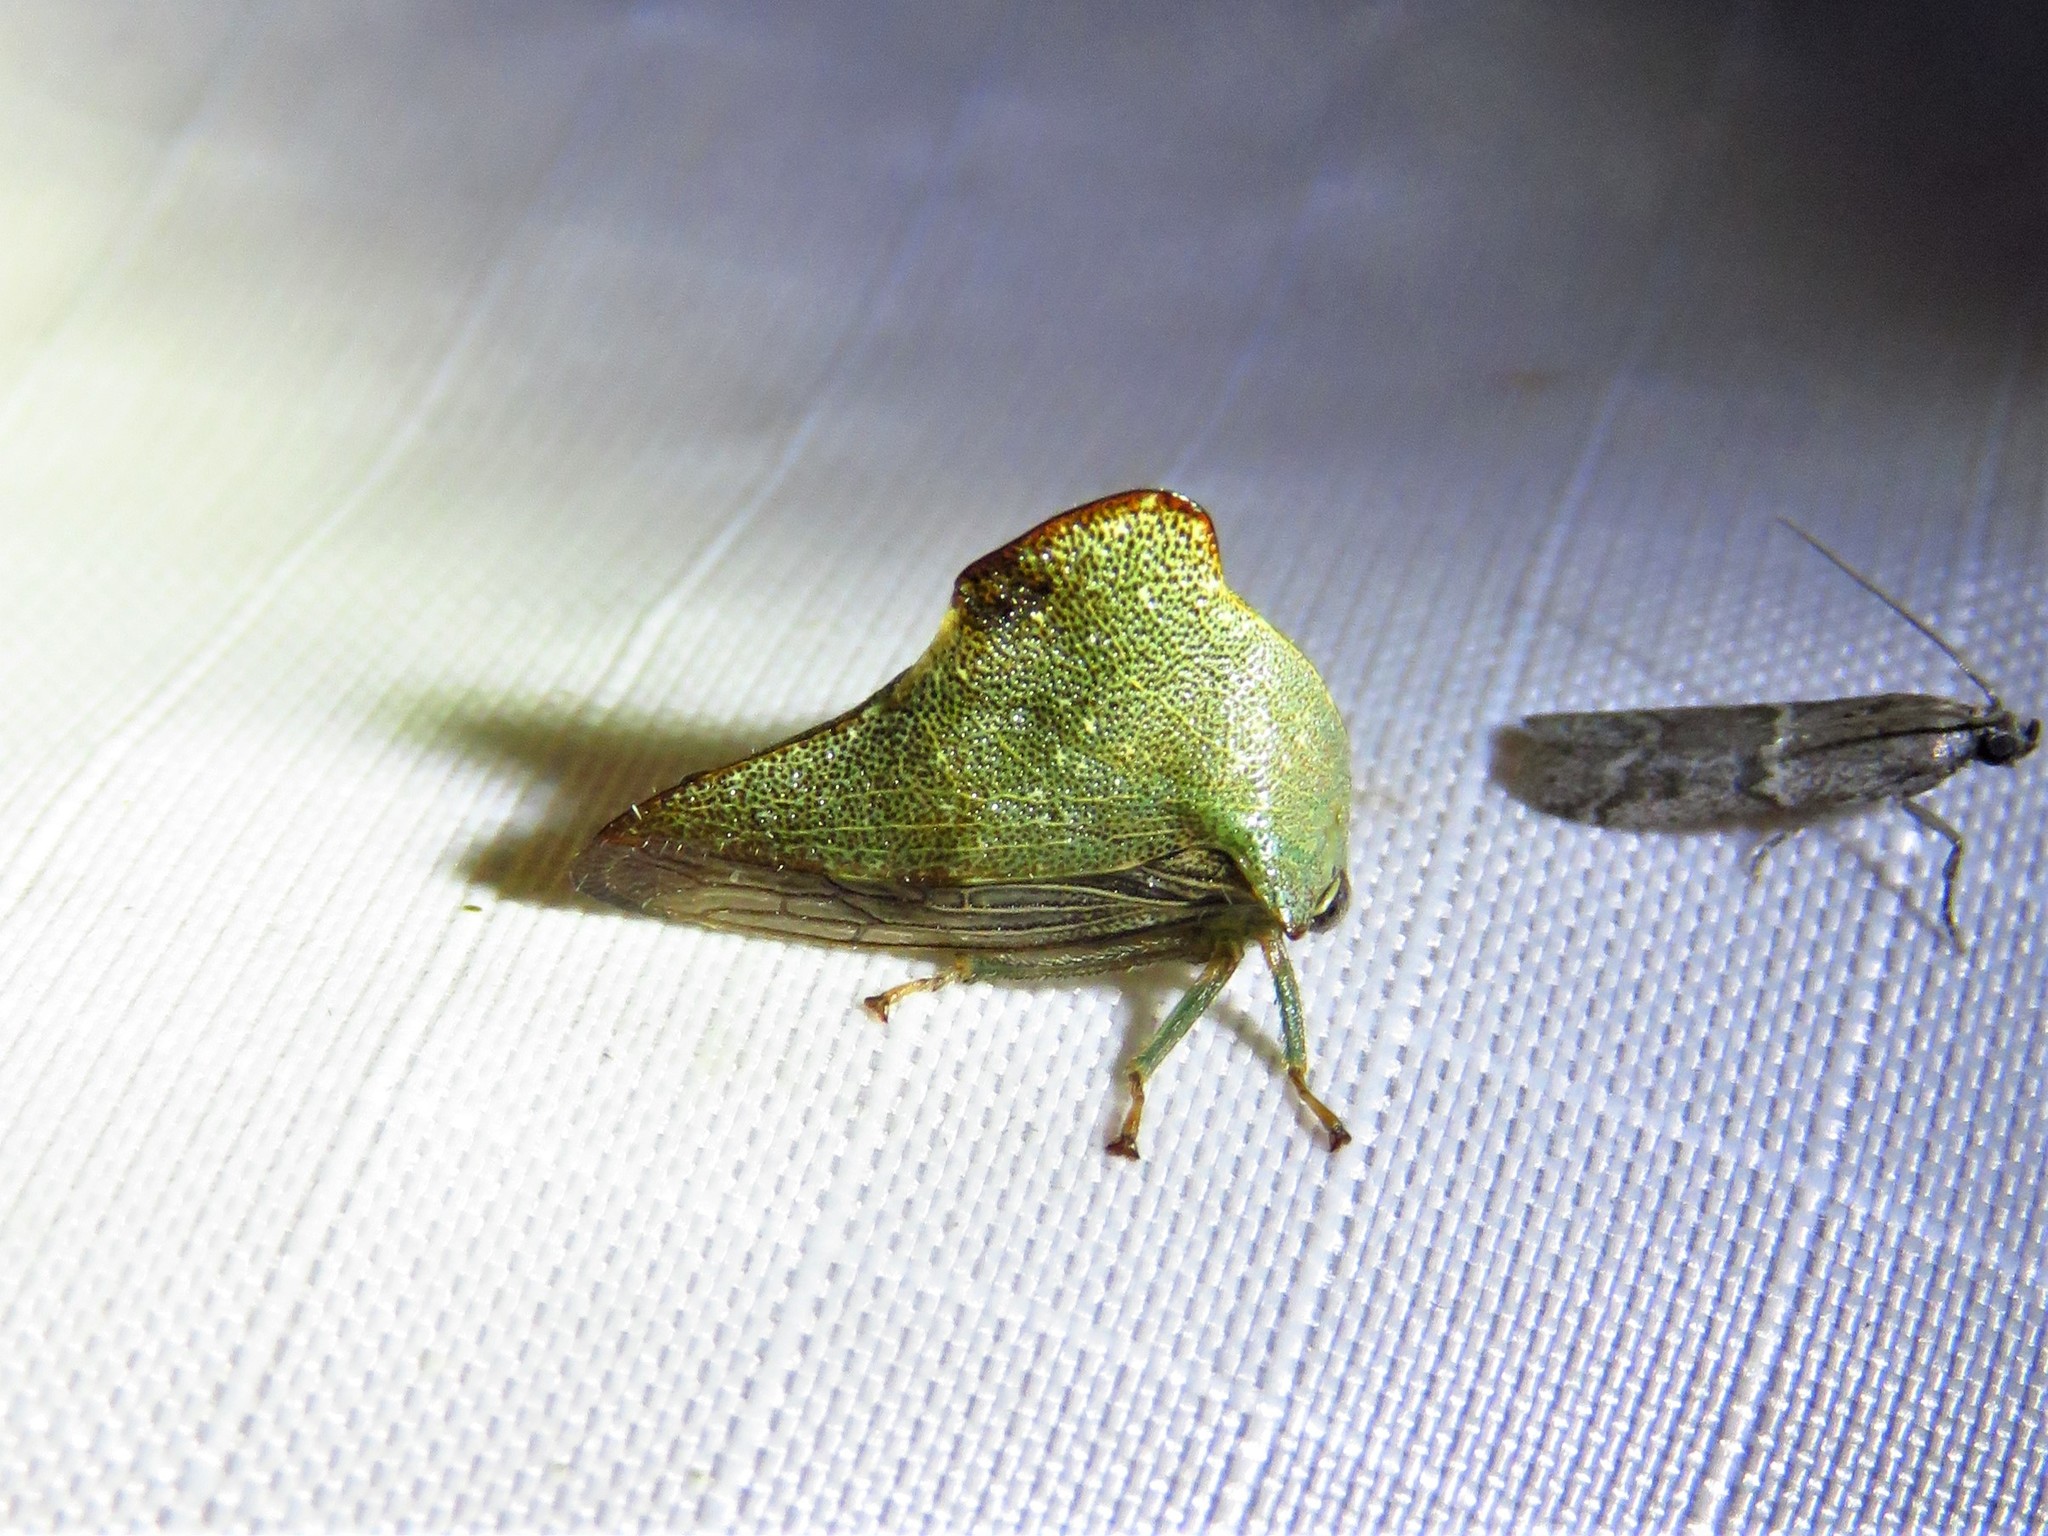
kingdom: Animalia
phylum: Arthropoda
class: Insecta
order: Hemiptera
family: Membracidae
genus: Telamona
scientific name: Telamona monticola
